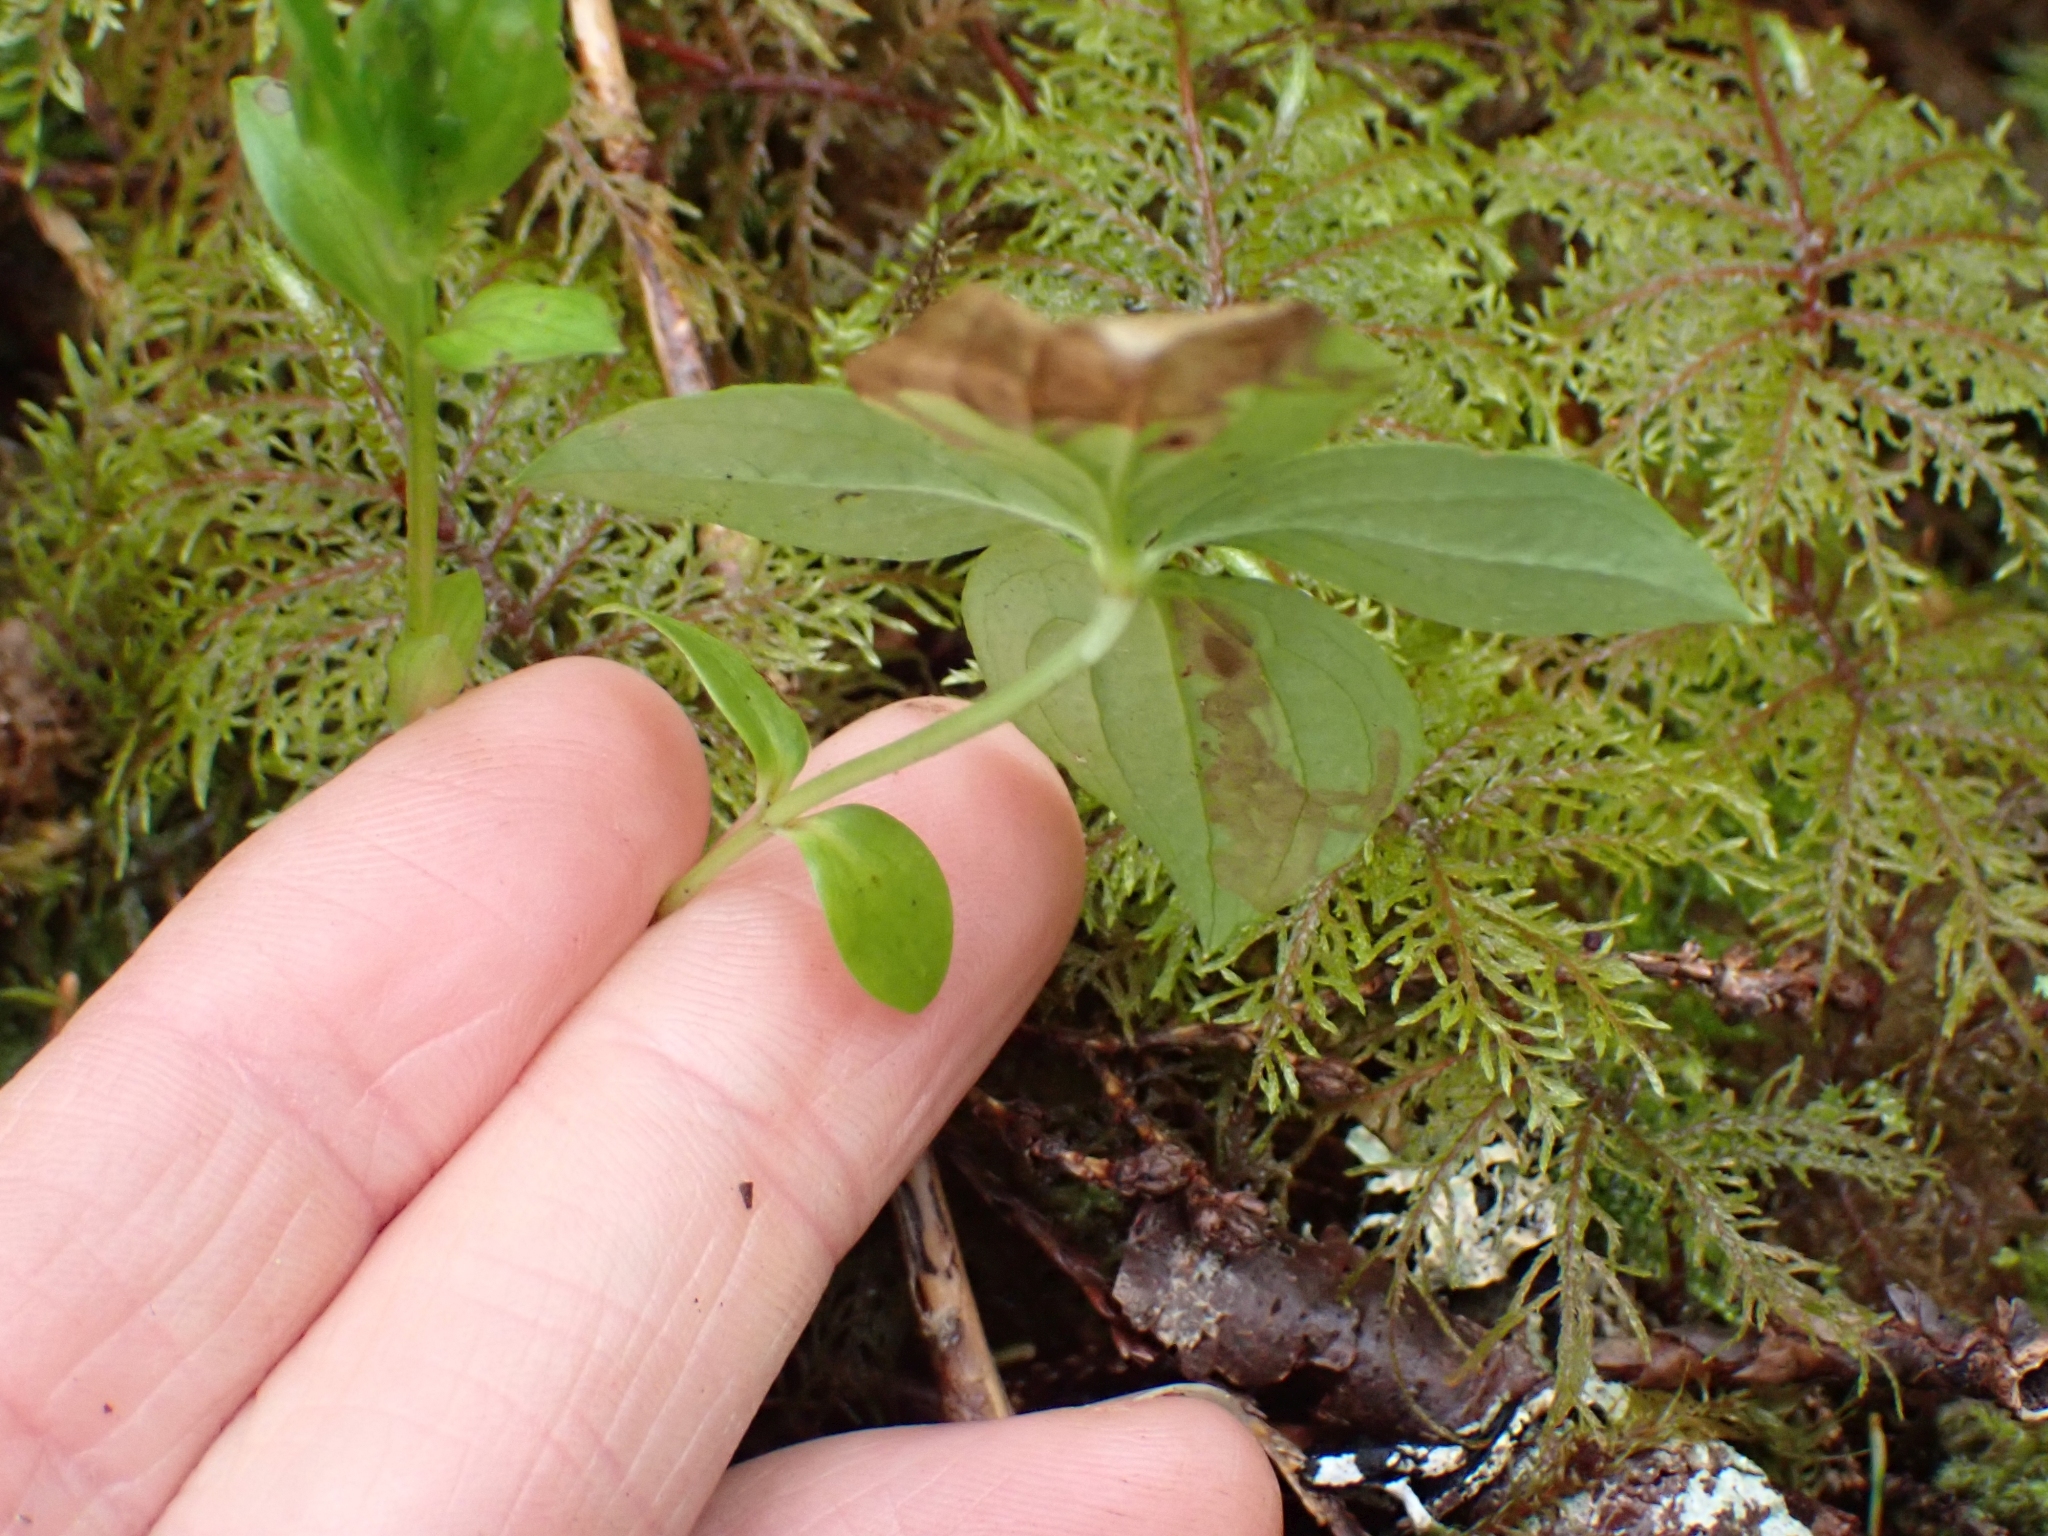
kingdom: Plantae
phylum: Tracheophyta
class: Magnoliopsida
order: Cornales
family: Cornaceae
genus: Cornus
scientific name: Cornus unalaschkensis
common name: Alaska bunchberry
